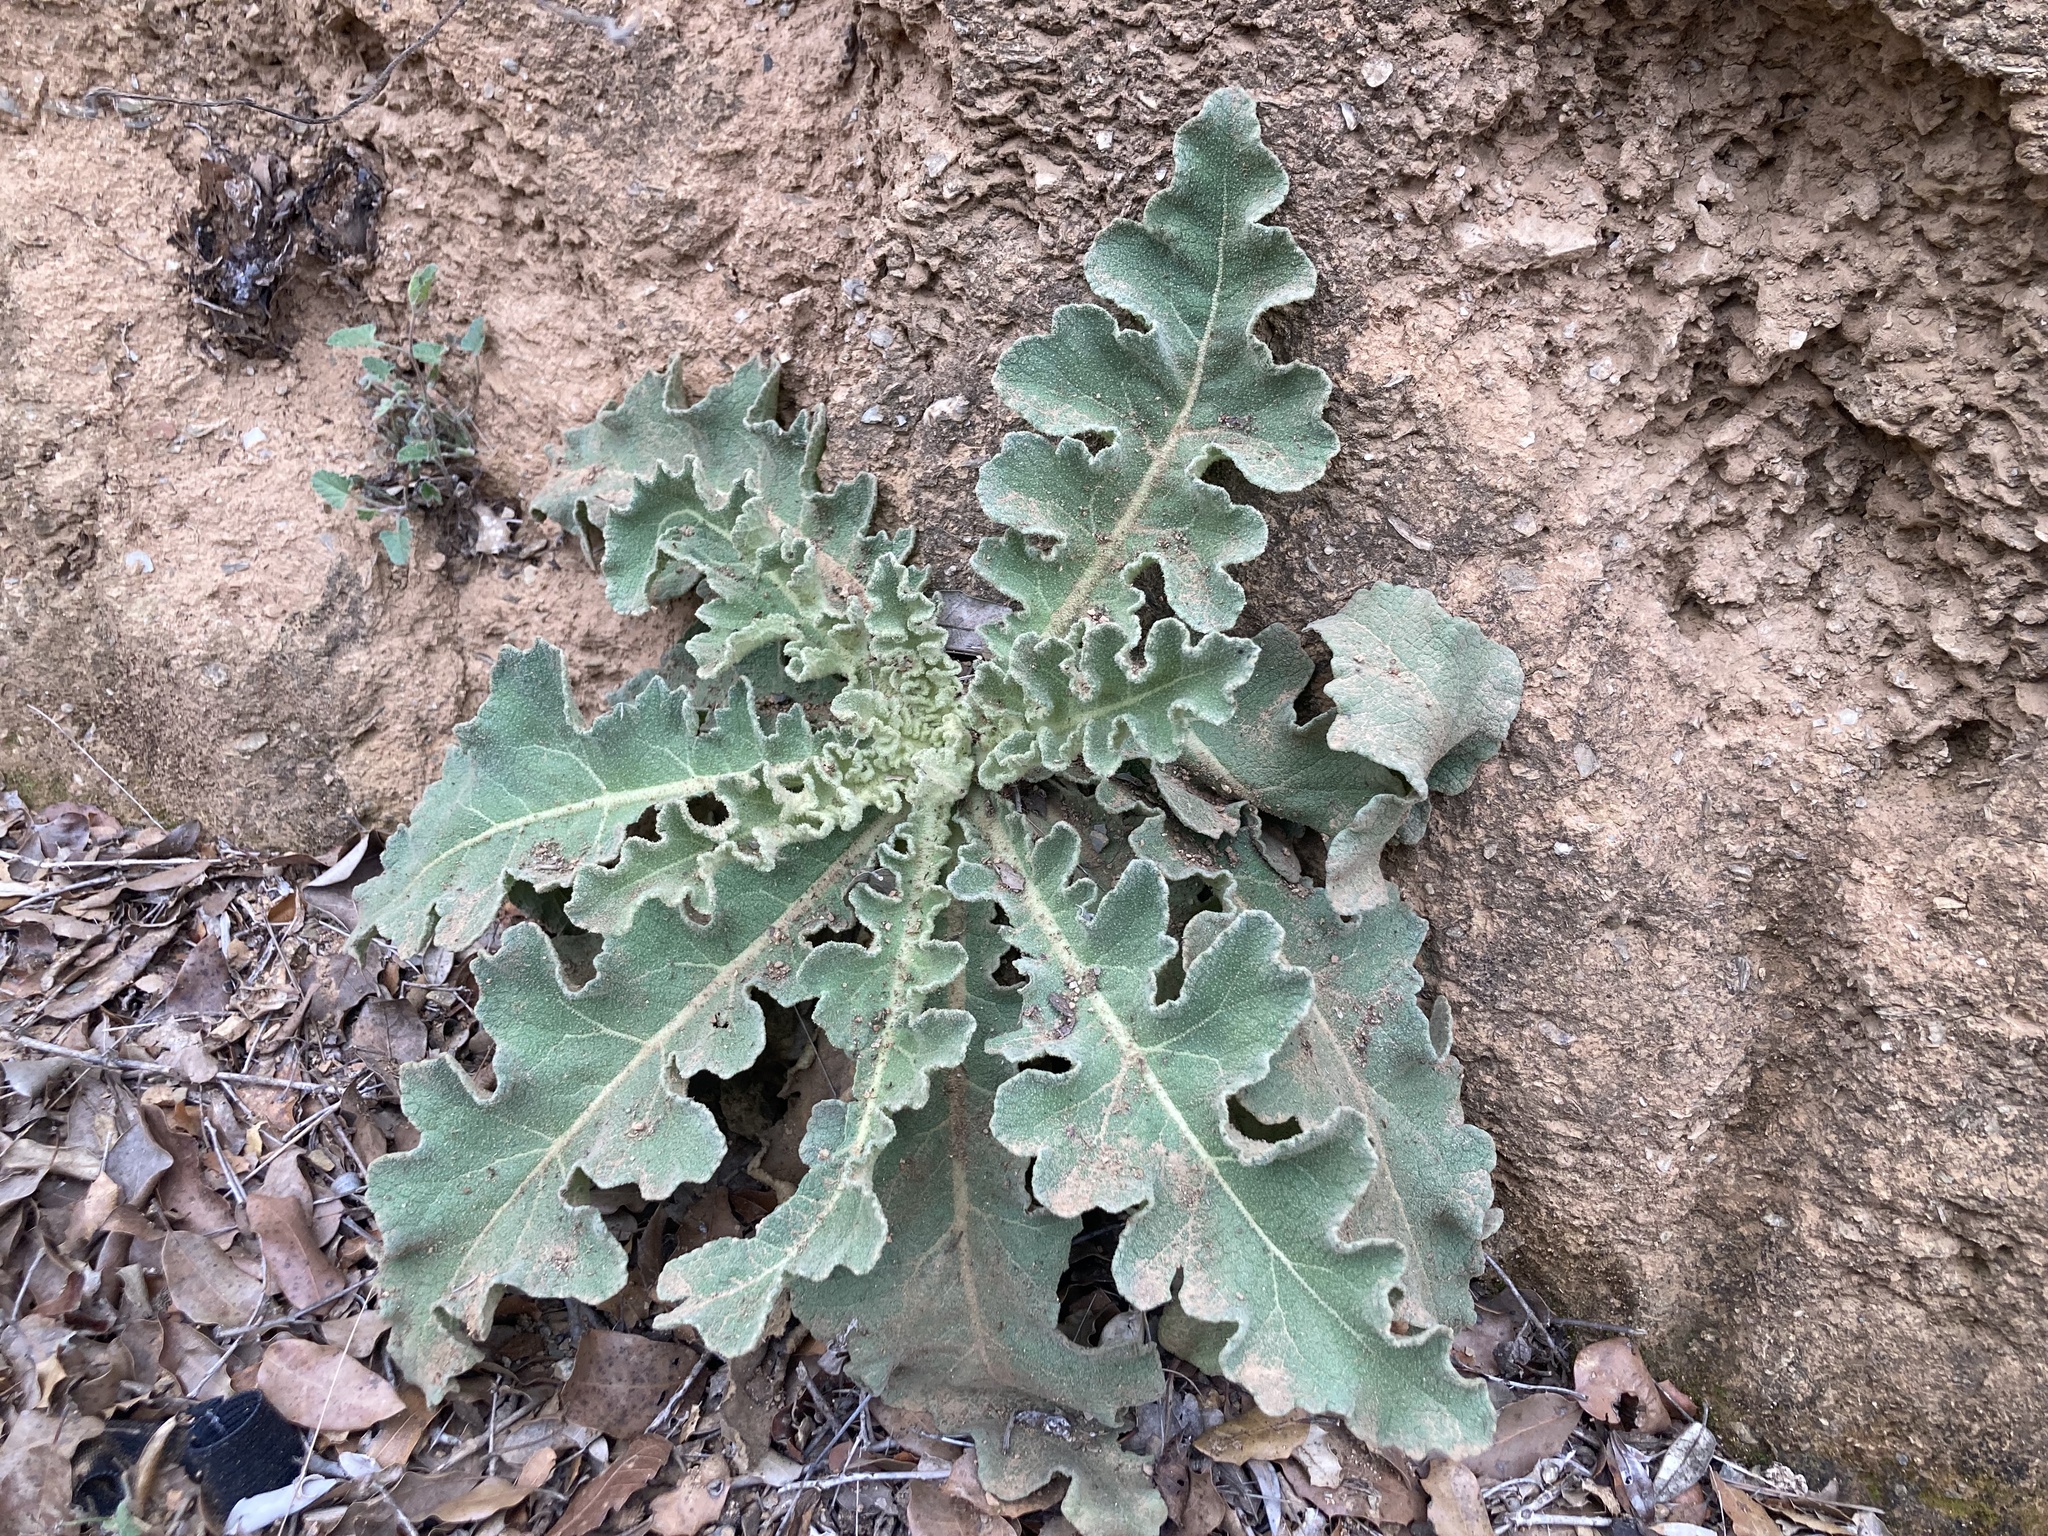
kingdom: Plantae
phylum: Tracheophyta
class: Magnoliopsida
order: Lamiales
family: Scrophulariaceae
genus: Verbascum
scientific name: Verbascum sinuatum
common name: Wavyleaf mullein
